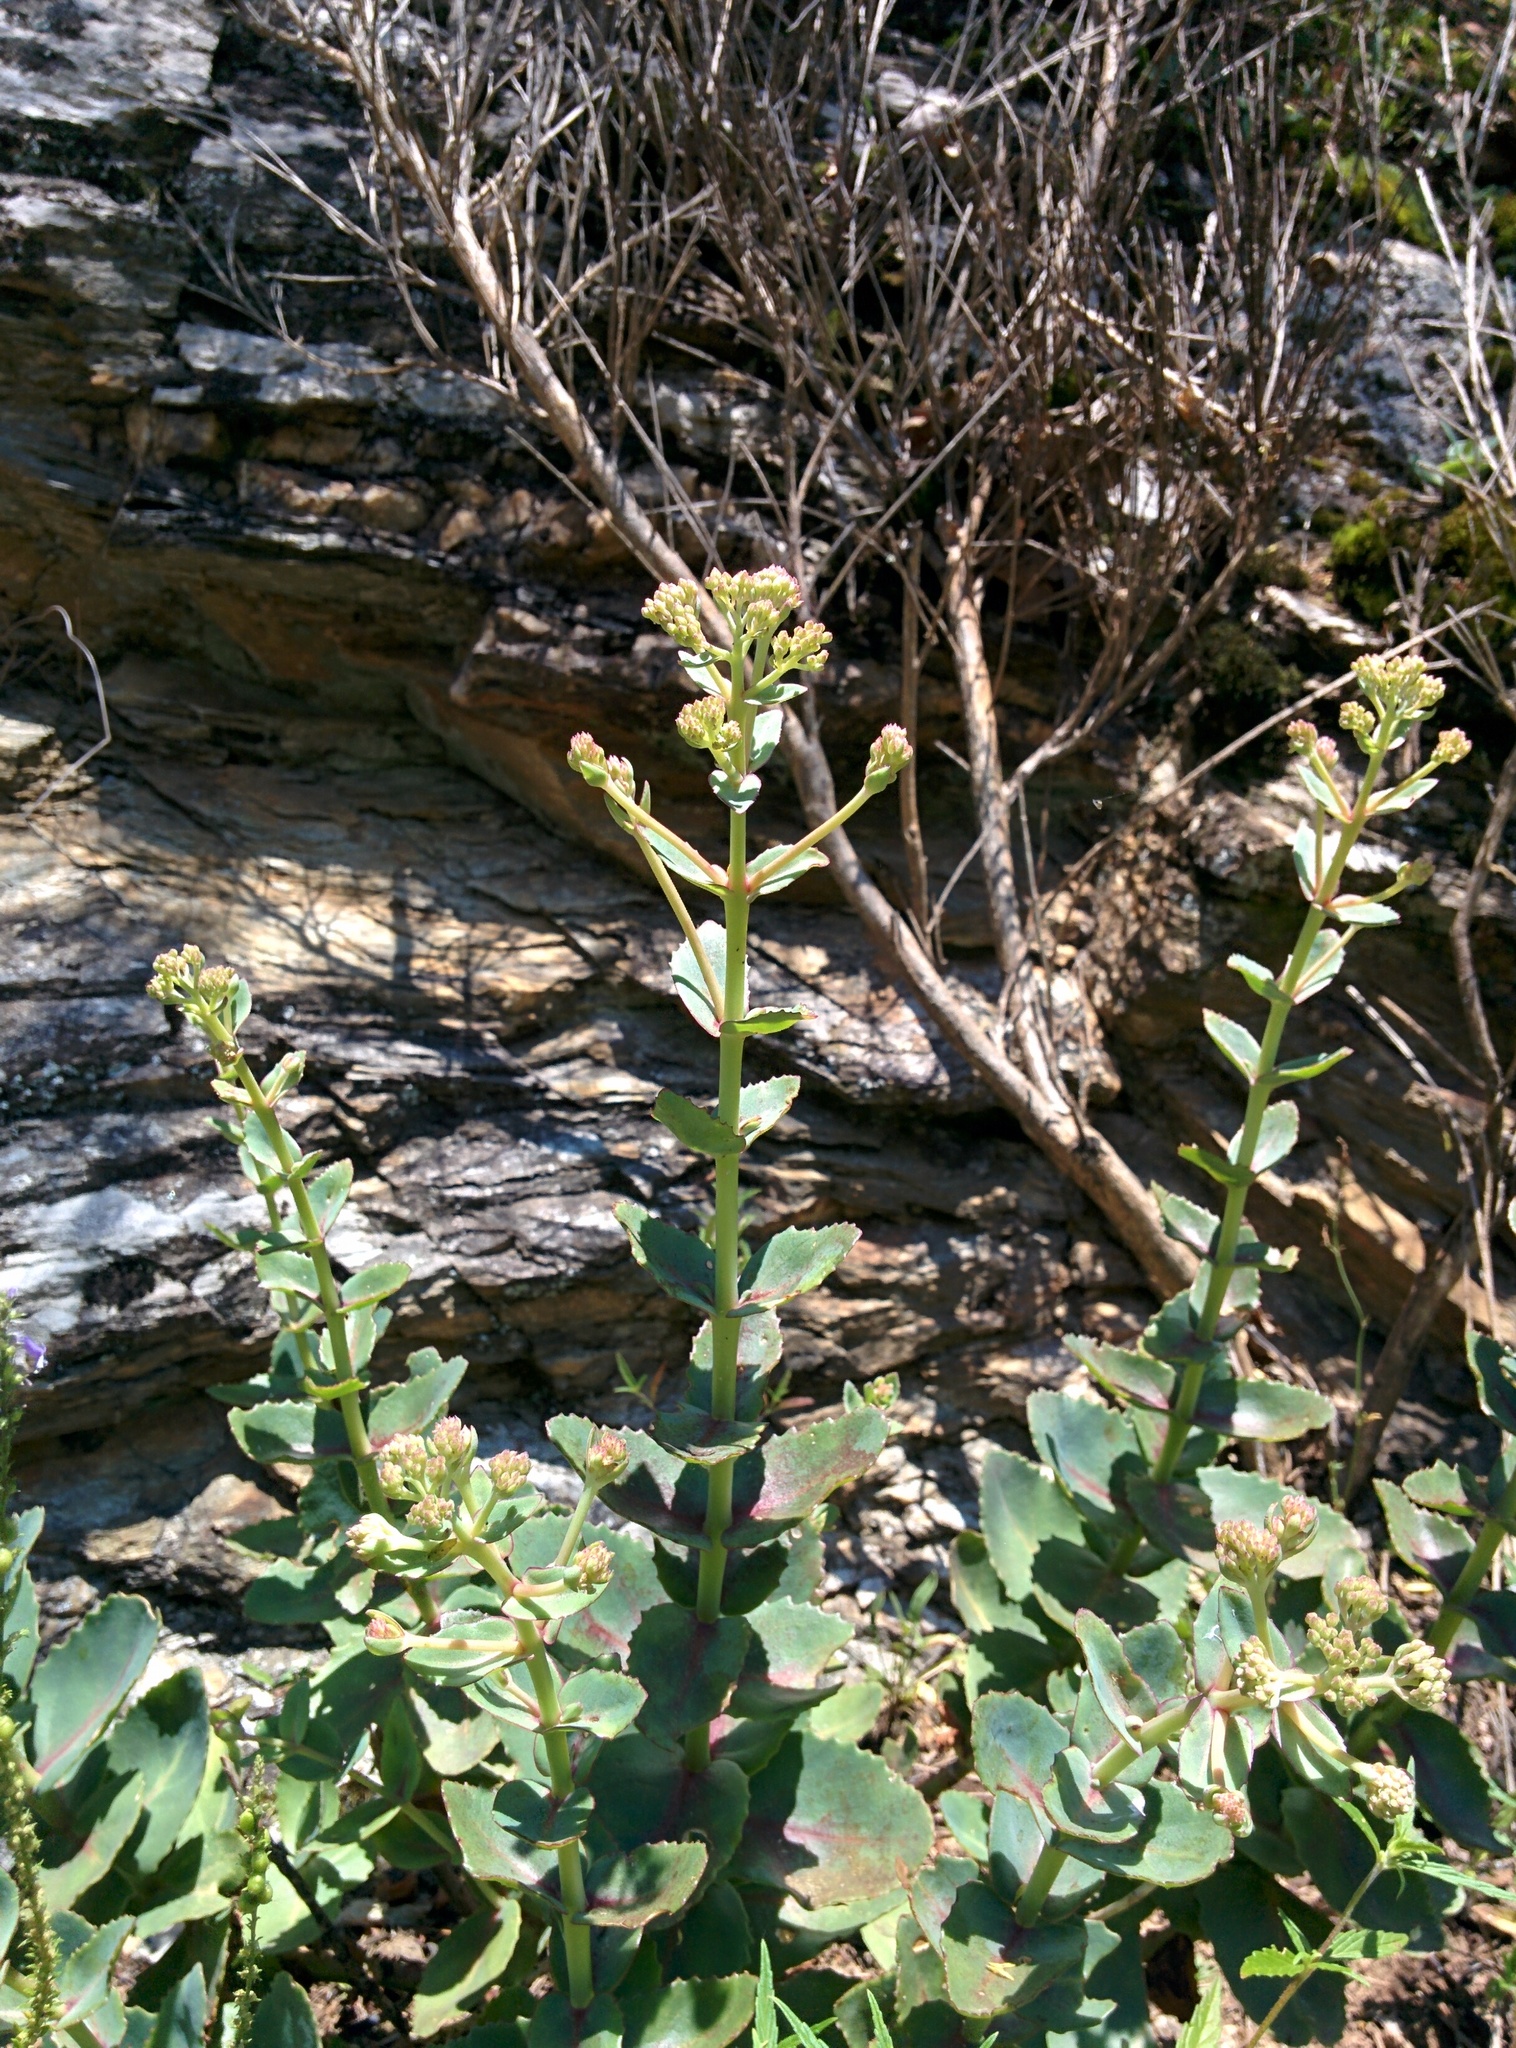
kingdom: Plantae
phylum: Tracheophyta
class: Magnoliopsida
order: Saxifragales
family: Crassulaceae
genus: Hylotelephium
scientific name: Hylotelephium maximum
